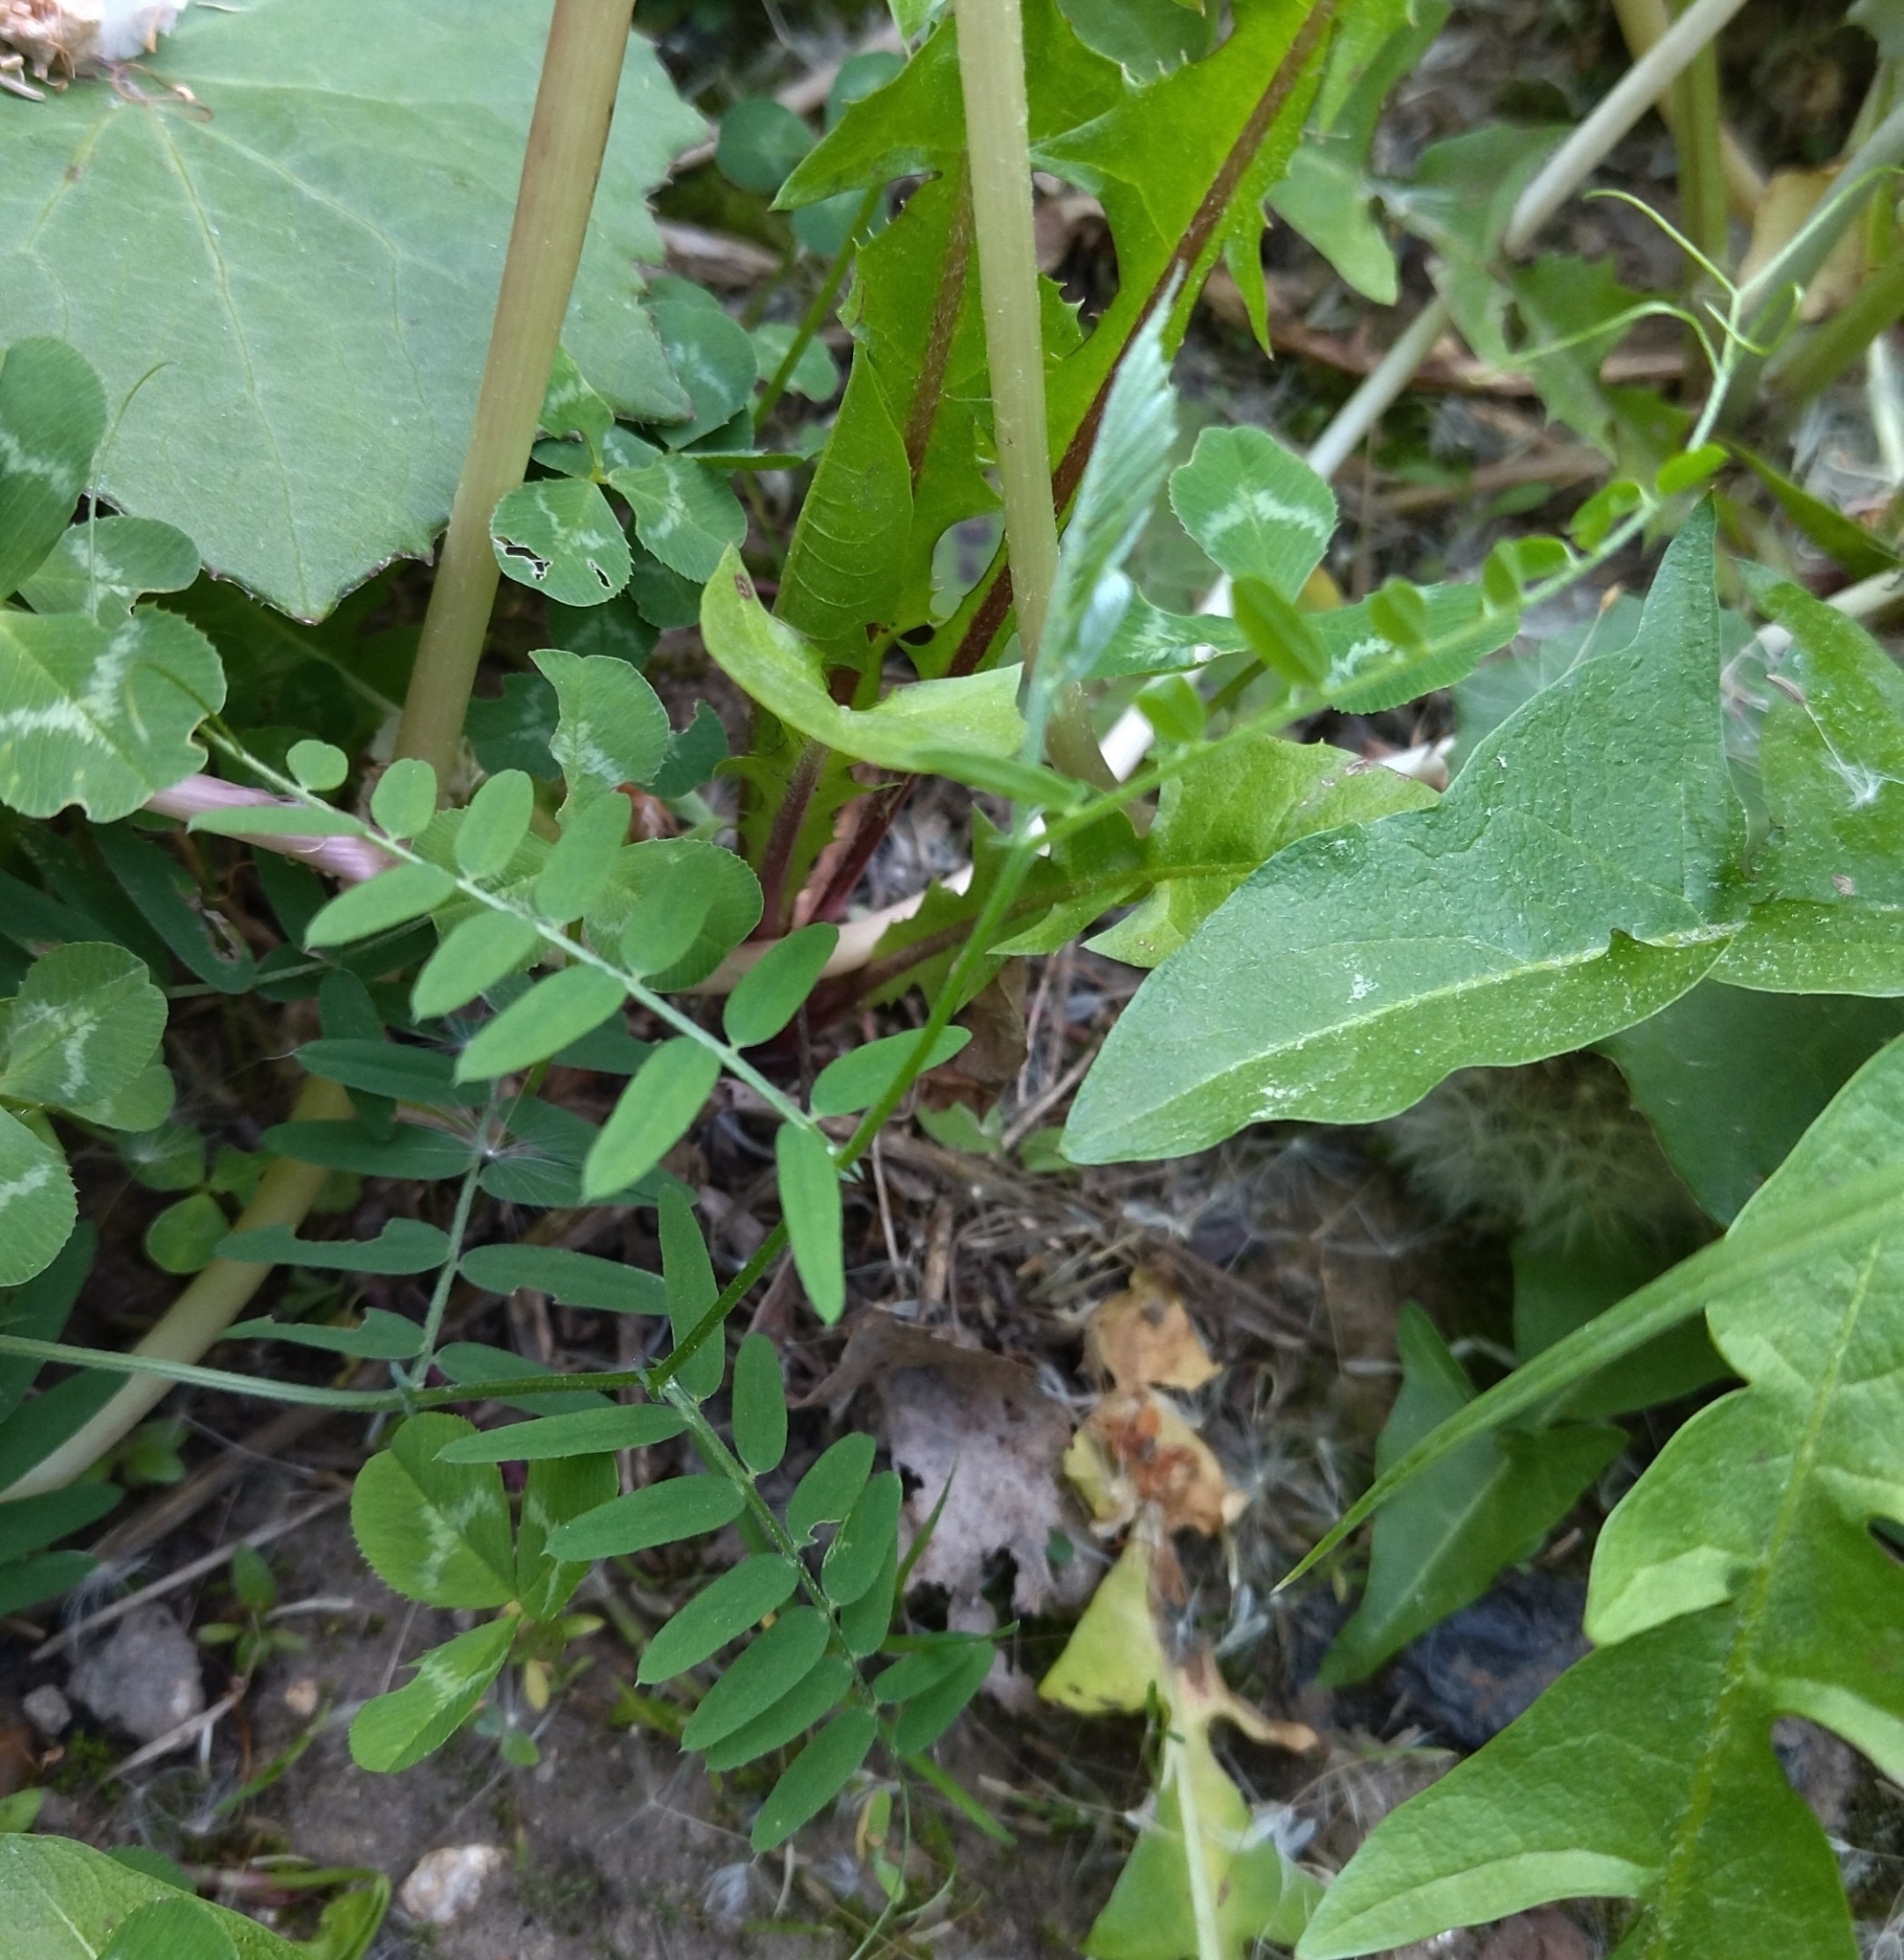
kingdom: Plantae
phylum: Tracheophyta
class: Magnoliopsida
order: Fabales
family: Fabaceae
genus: Vicia
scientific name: Vicia cracca
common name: Bird vetch
